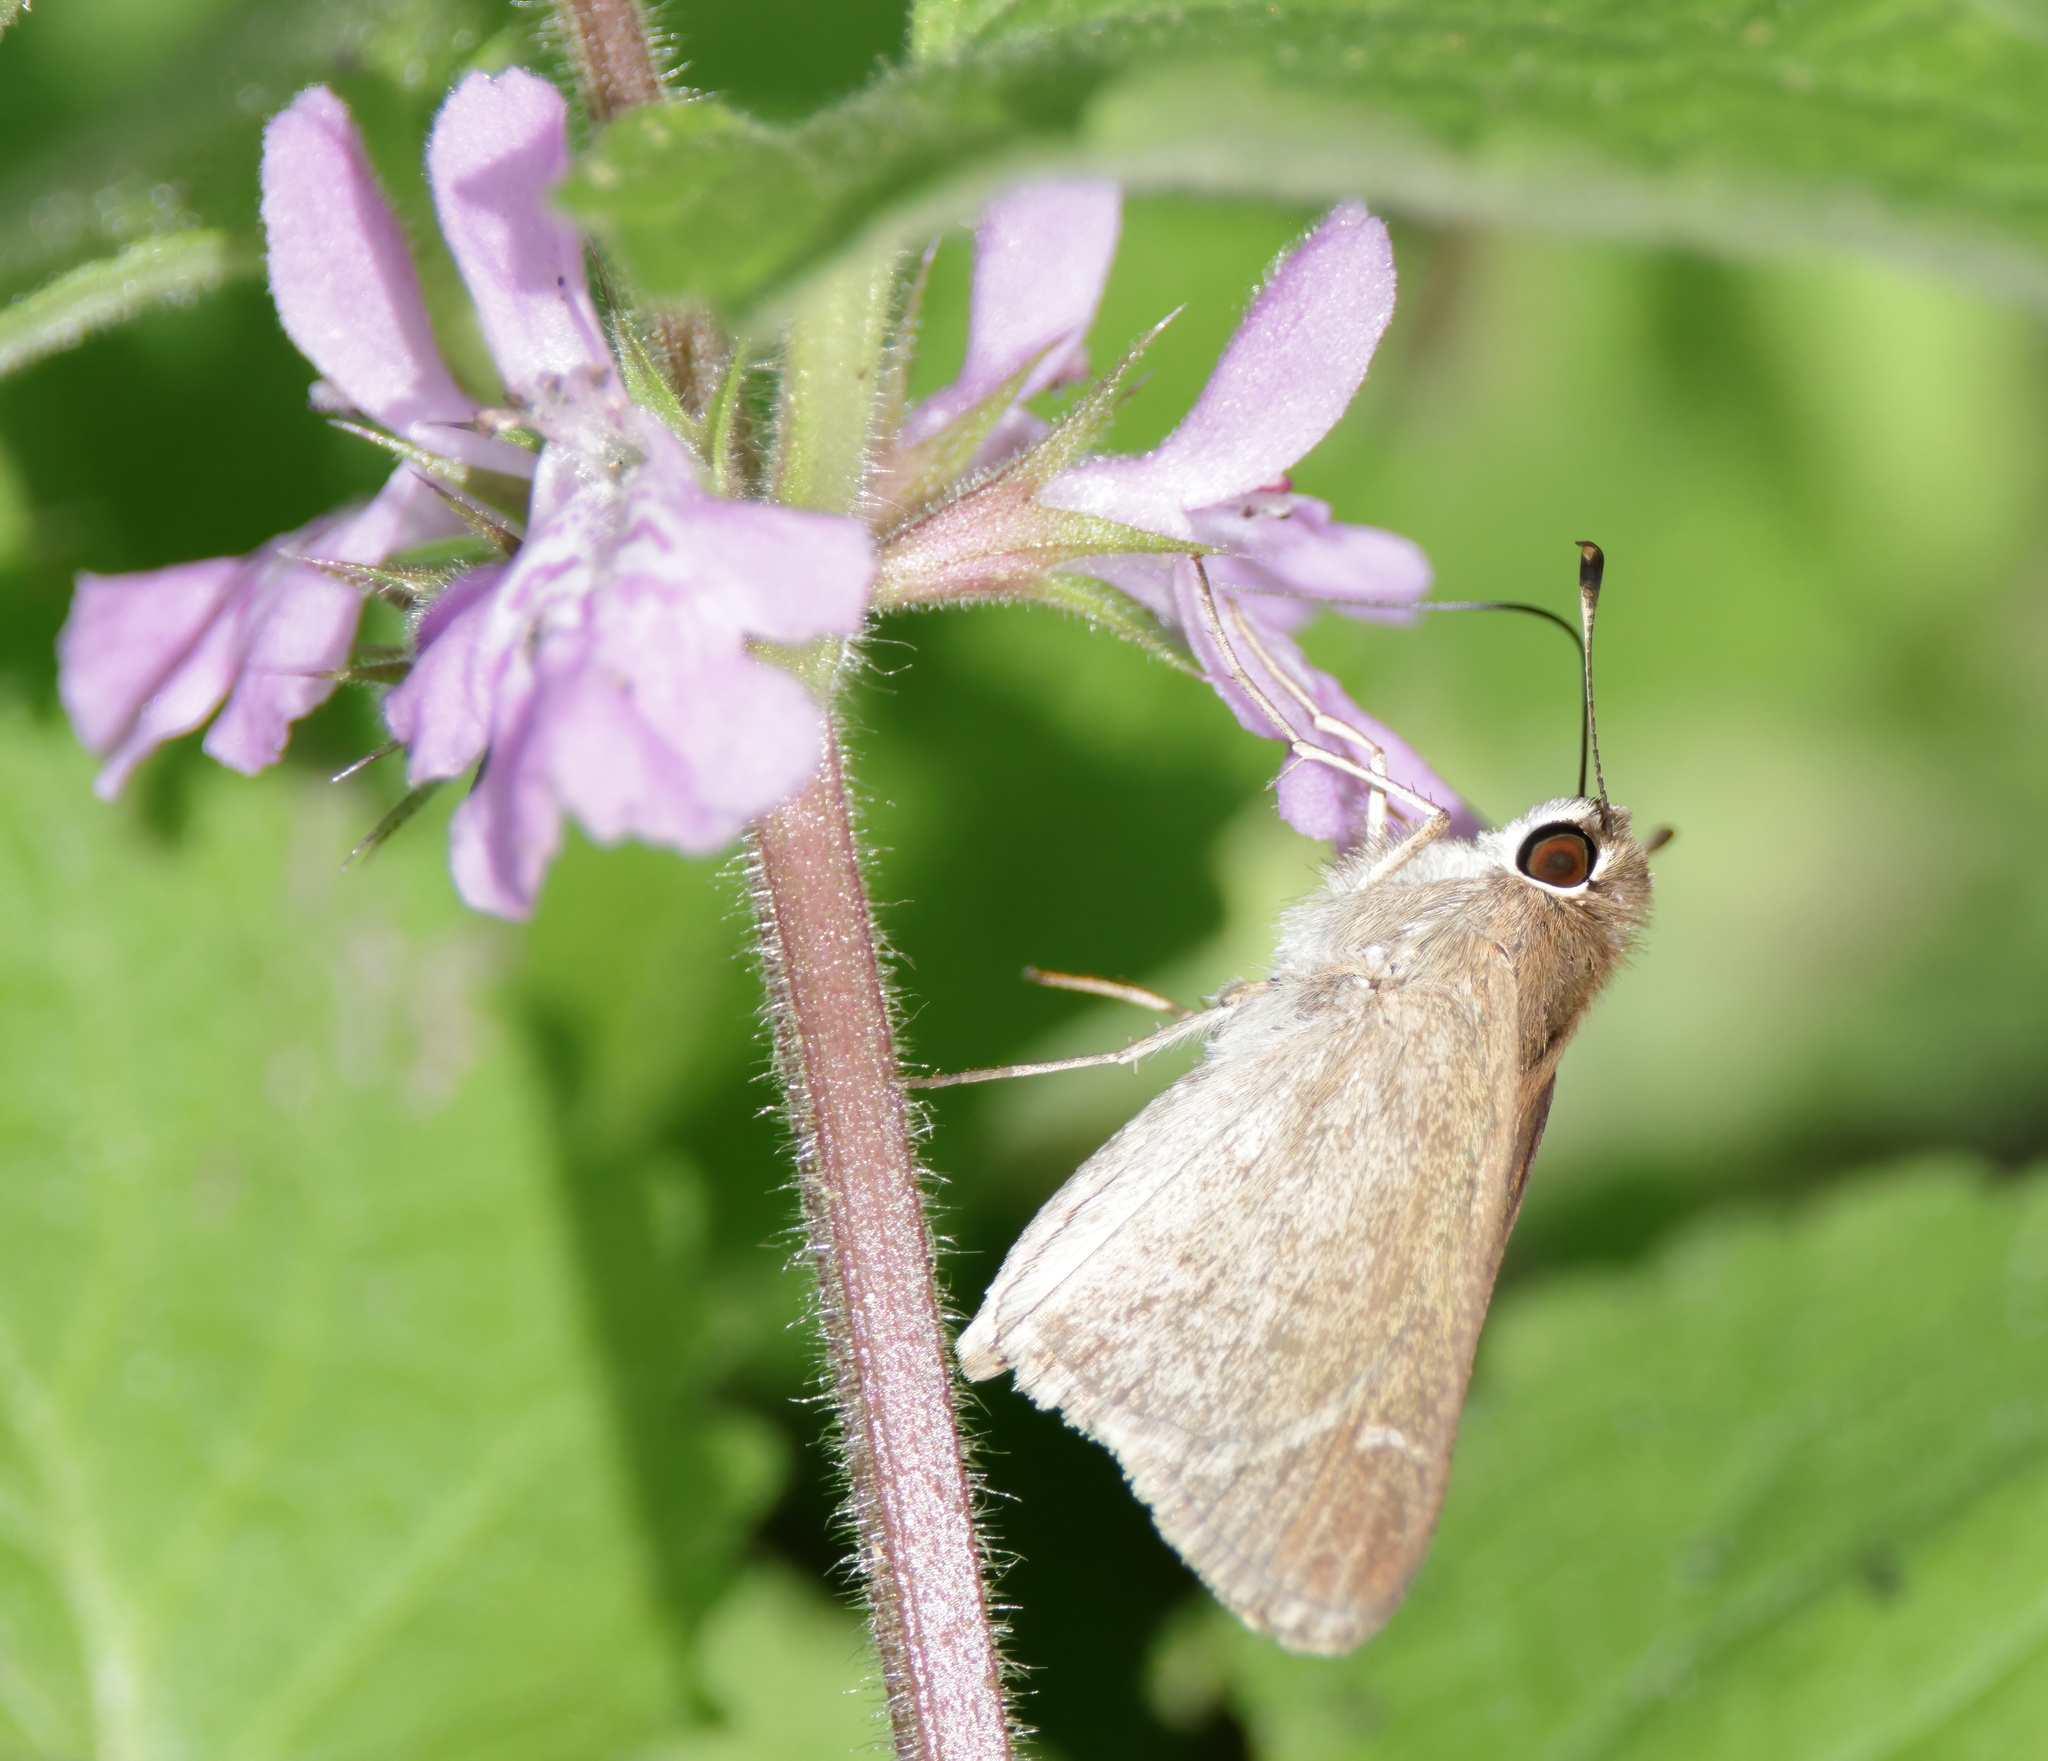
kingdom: Animalia
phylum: Arthropoda
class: Insecta
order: Lepidoptera
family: Hesperiidae
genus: Lerodea
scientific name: Lerodea eufala
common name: Eufala skipper
